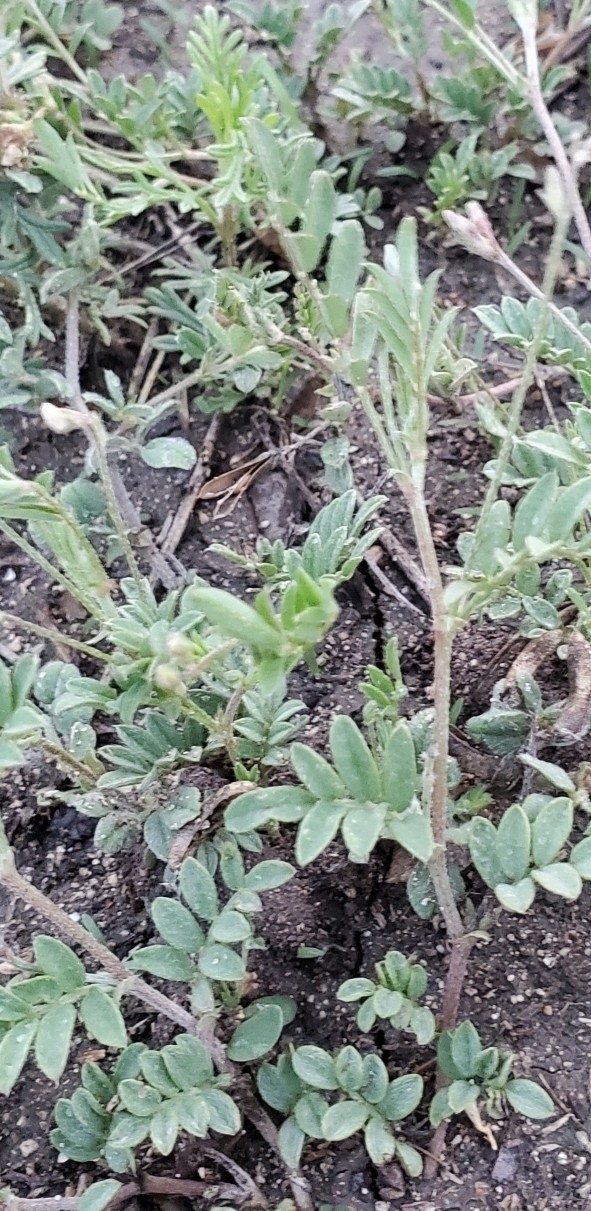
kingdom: Plantae
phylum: Tracheophyta
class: Magnoliopsida
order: Fabales
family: Fabaceae
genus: Astragalus
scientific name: Astragalus nuttallianus
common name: Smallflowered milkvetch
